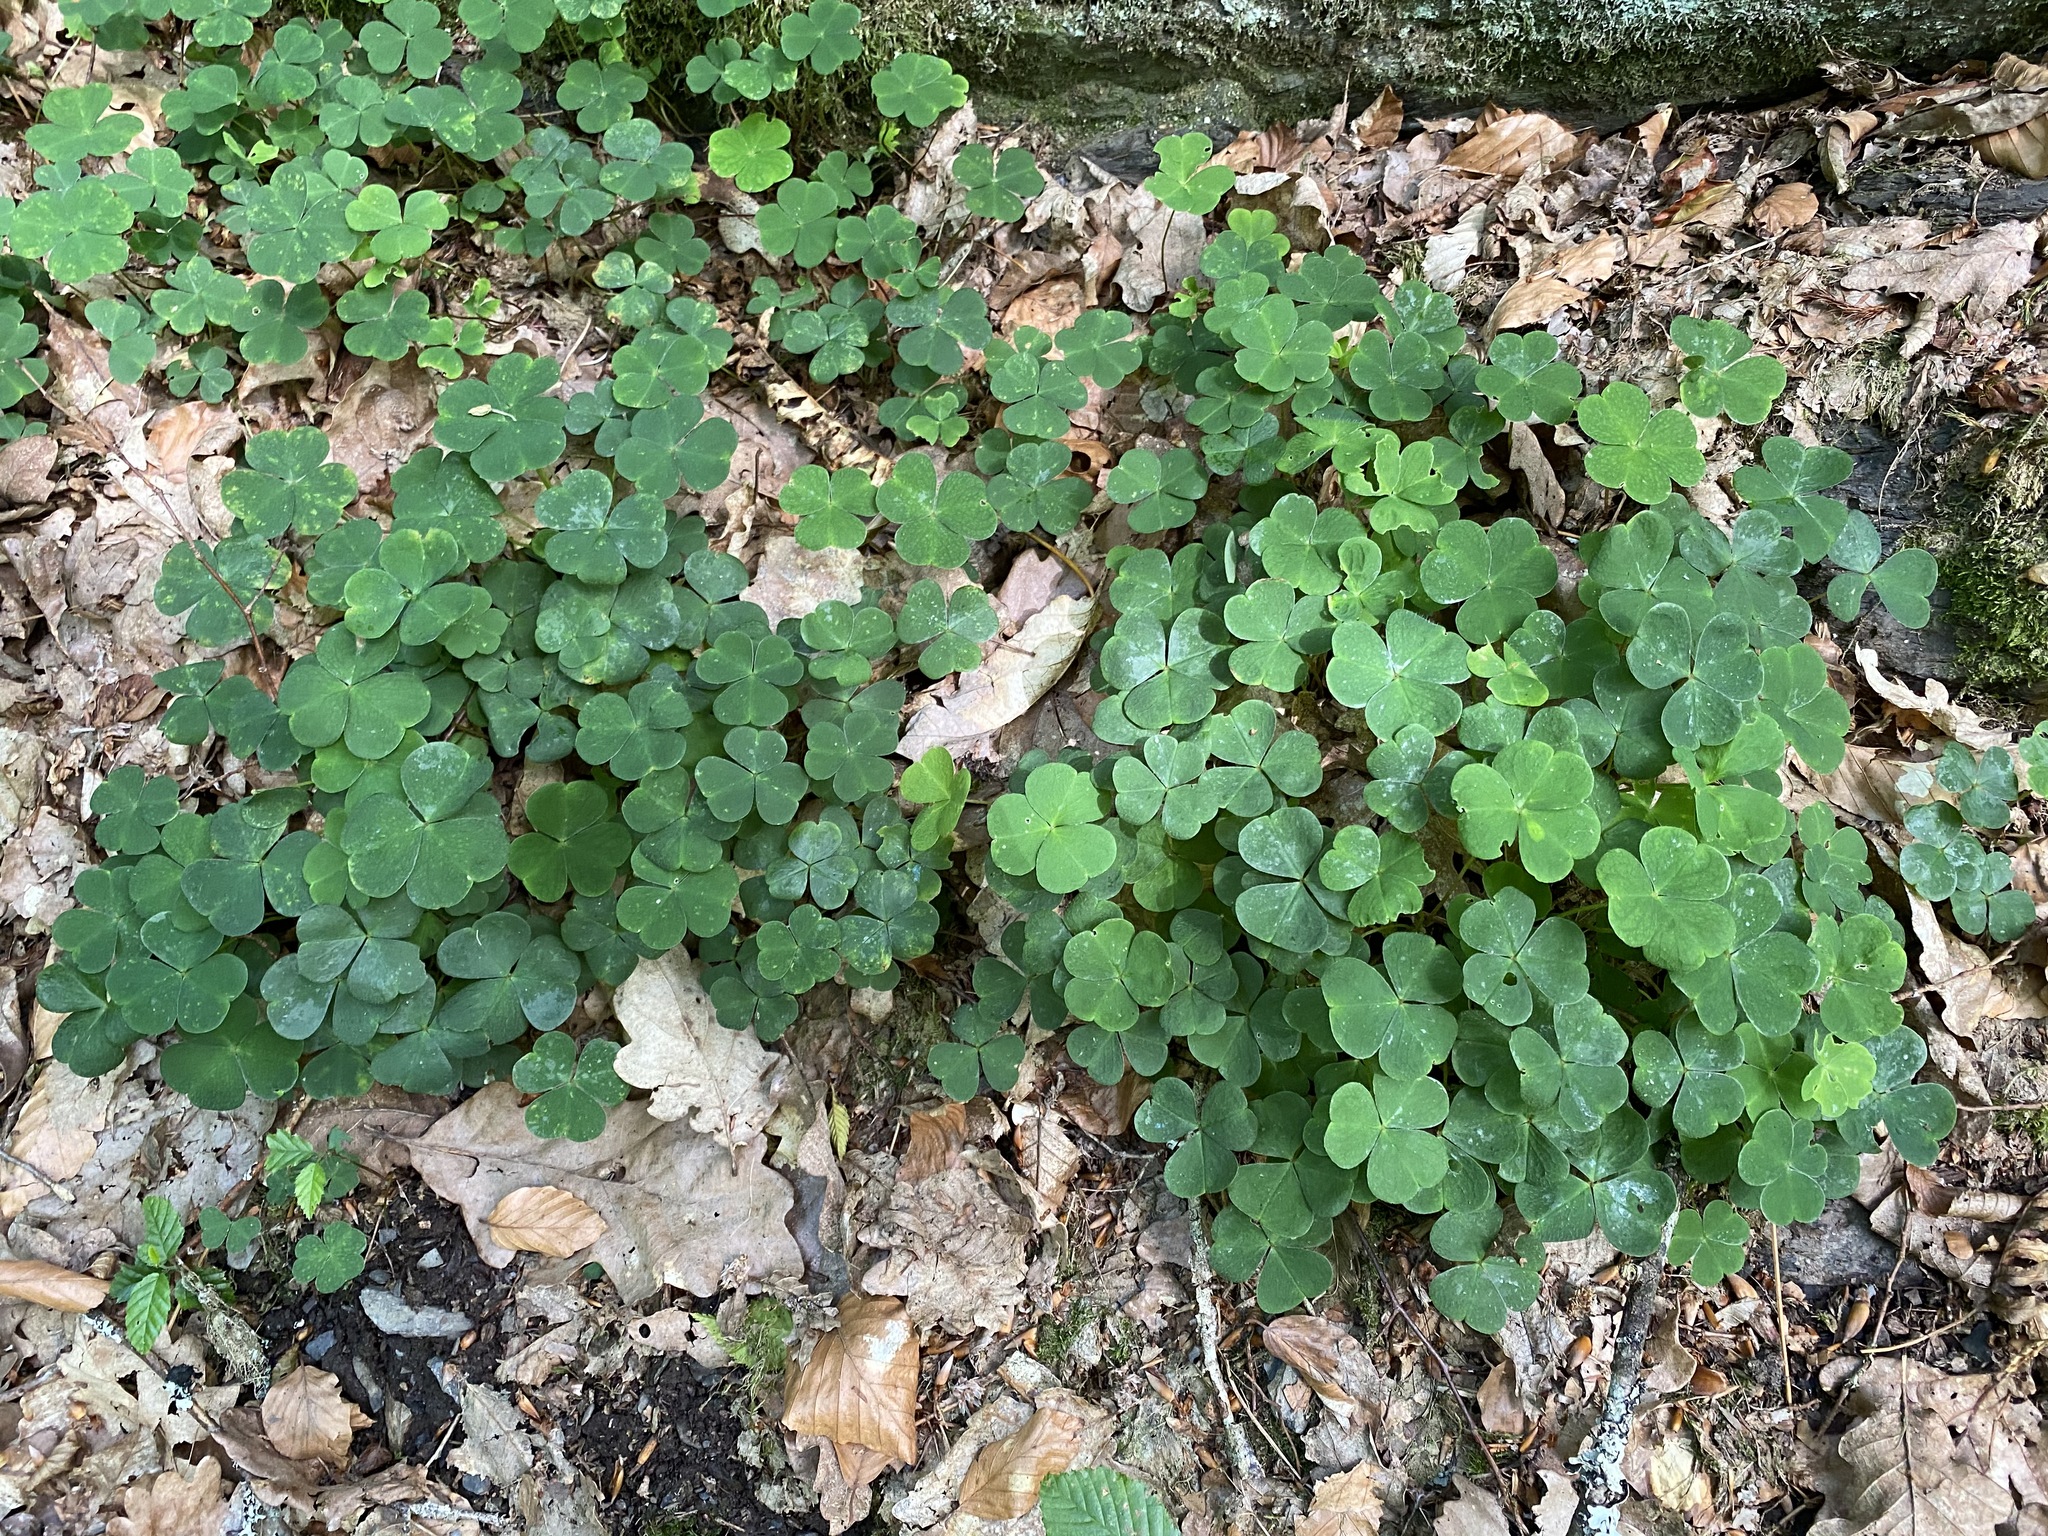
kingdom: Plantae
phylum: Tracheophyta
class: Magnoliopsida
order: Oxalidales
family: Oxalidaceae
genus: Oxalis
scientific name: Oxalis acetosella
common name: Wood-sorrel
